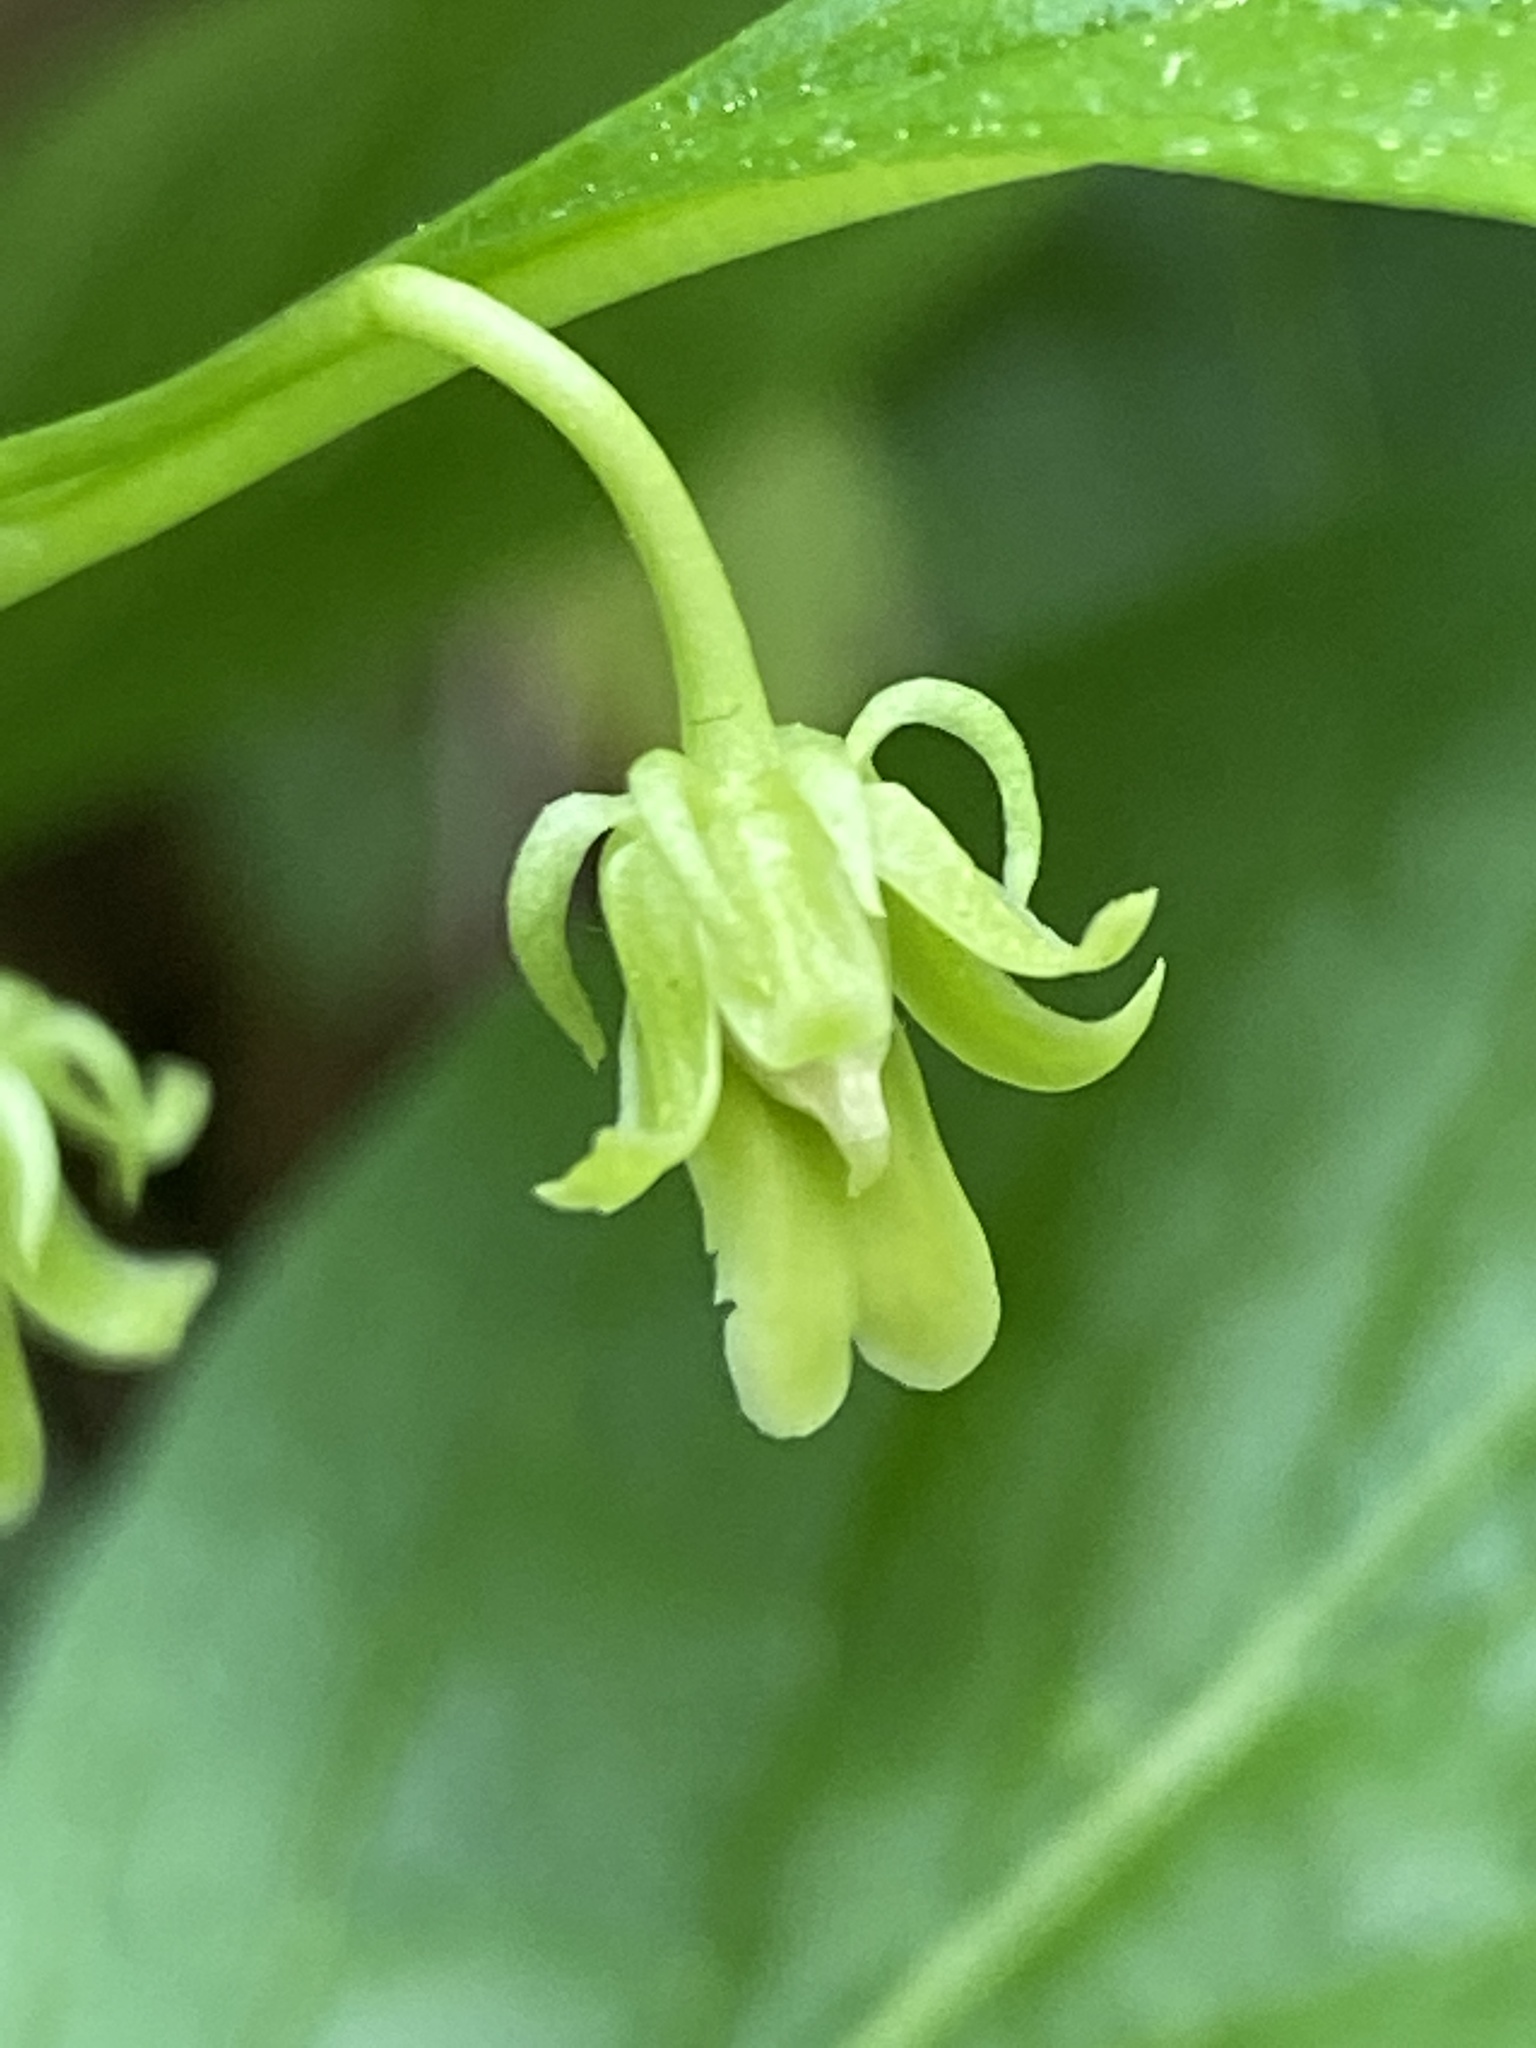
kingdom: Plantae
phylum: Tracheophyta
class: Magnoliopsida
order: Malpighiales
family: Violaceae
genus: Cubelium
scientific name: Cubelium concolor
